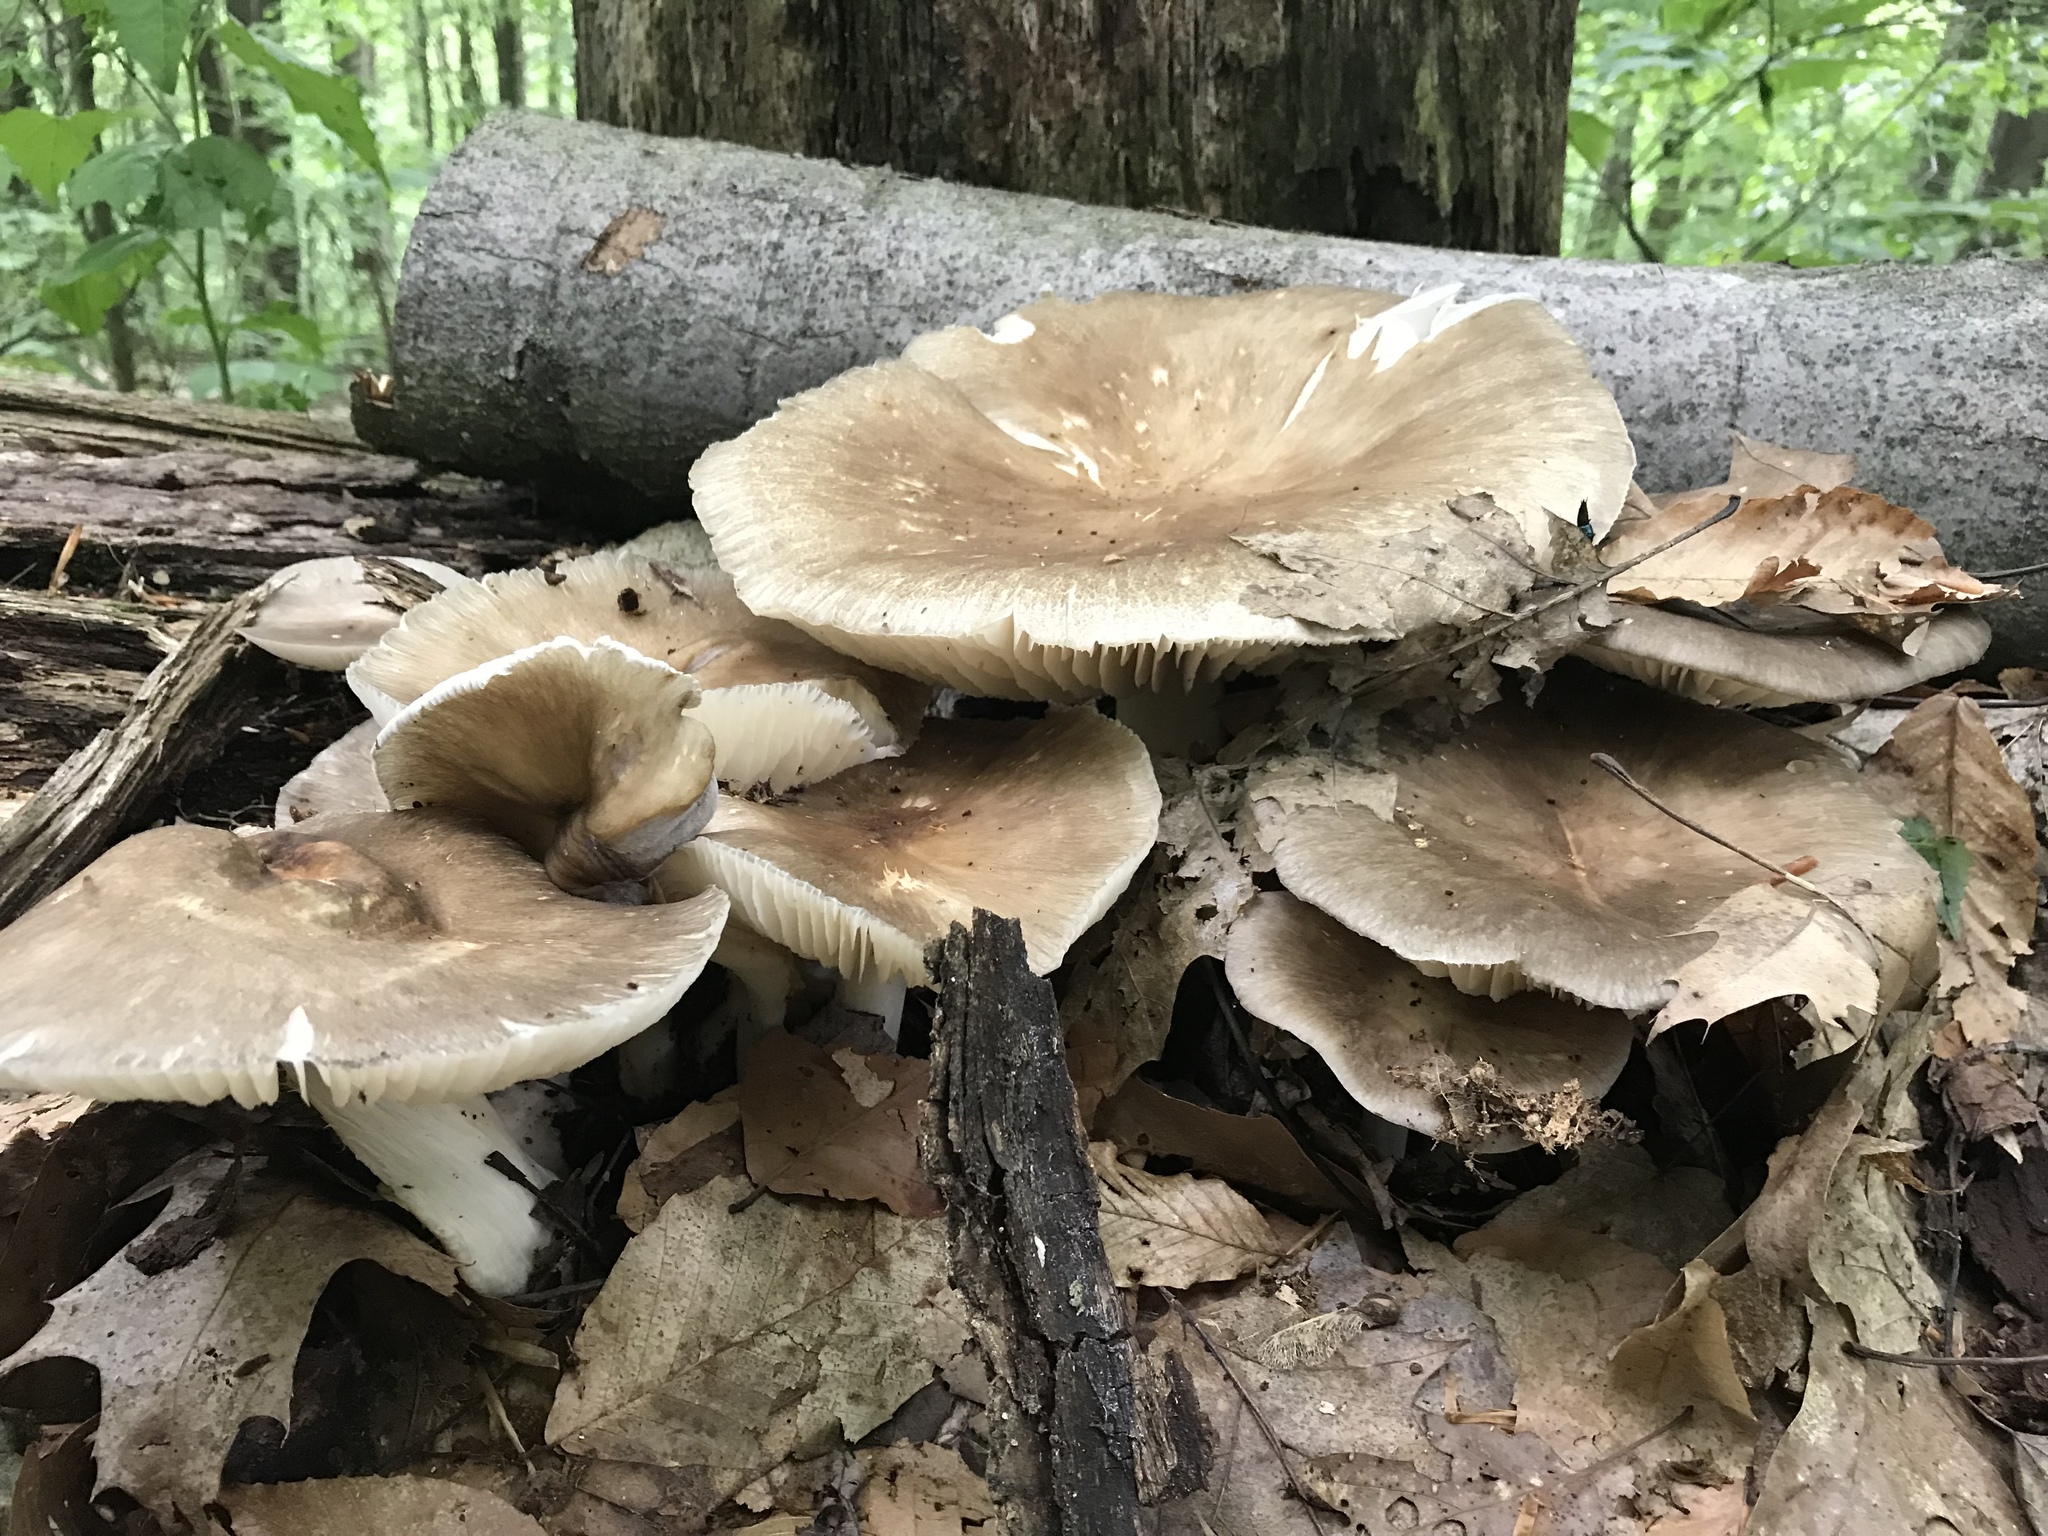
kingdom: Fungi
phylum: Basidiomycota
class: Agaricomycetes
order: Agaricales
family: Tricholomataceae
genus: Megacollybia
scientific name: Megacollybia rodmanii
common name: Eastern american platterful mushroom
